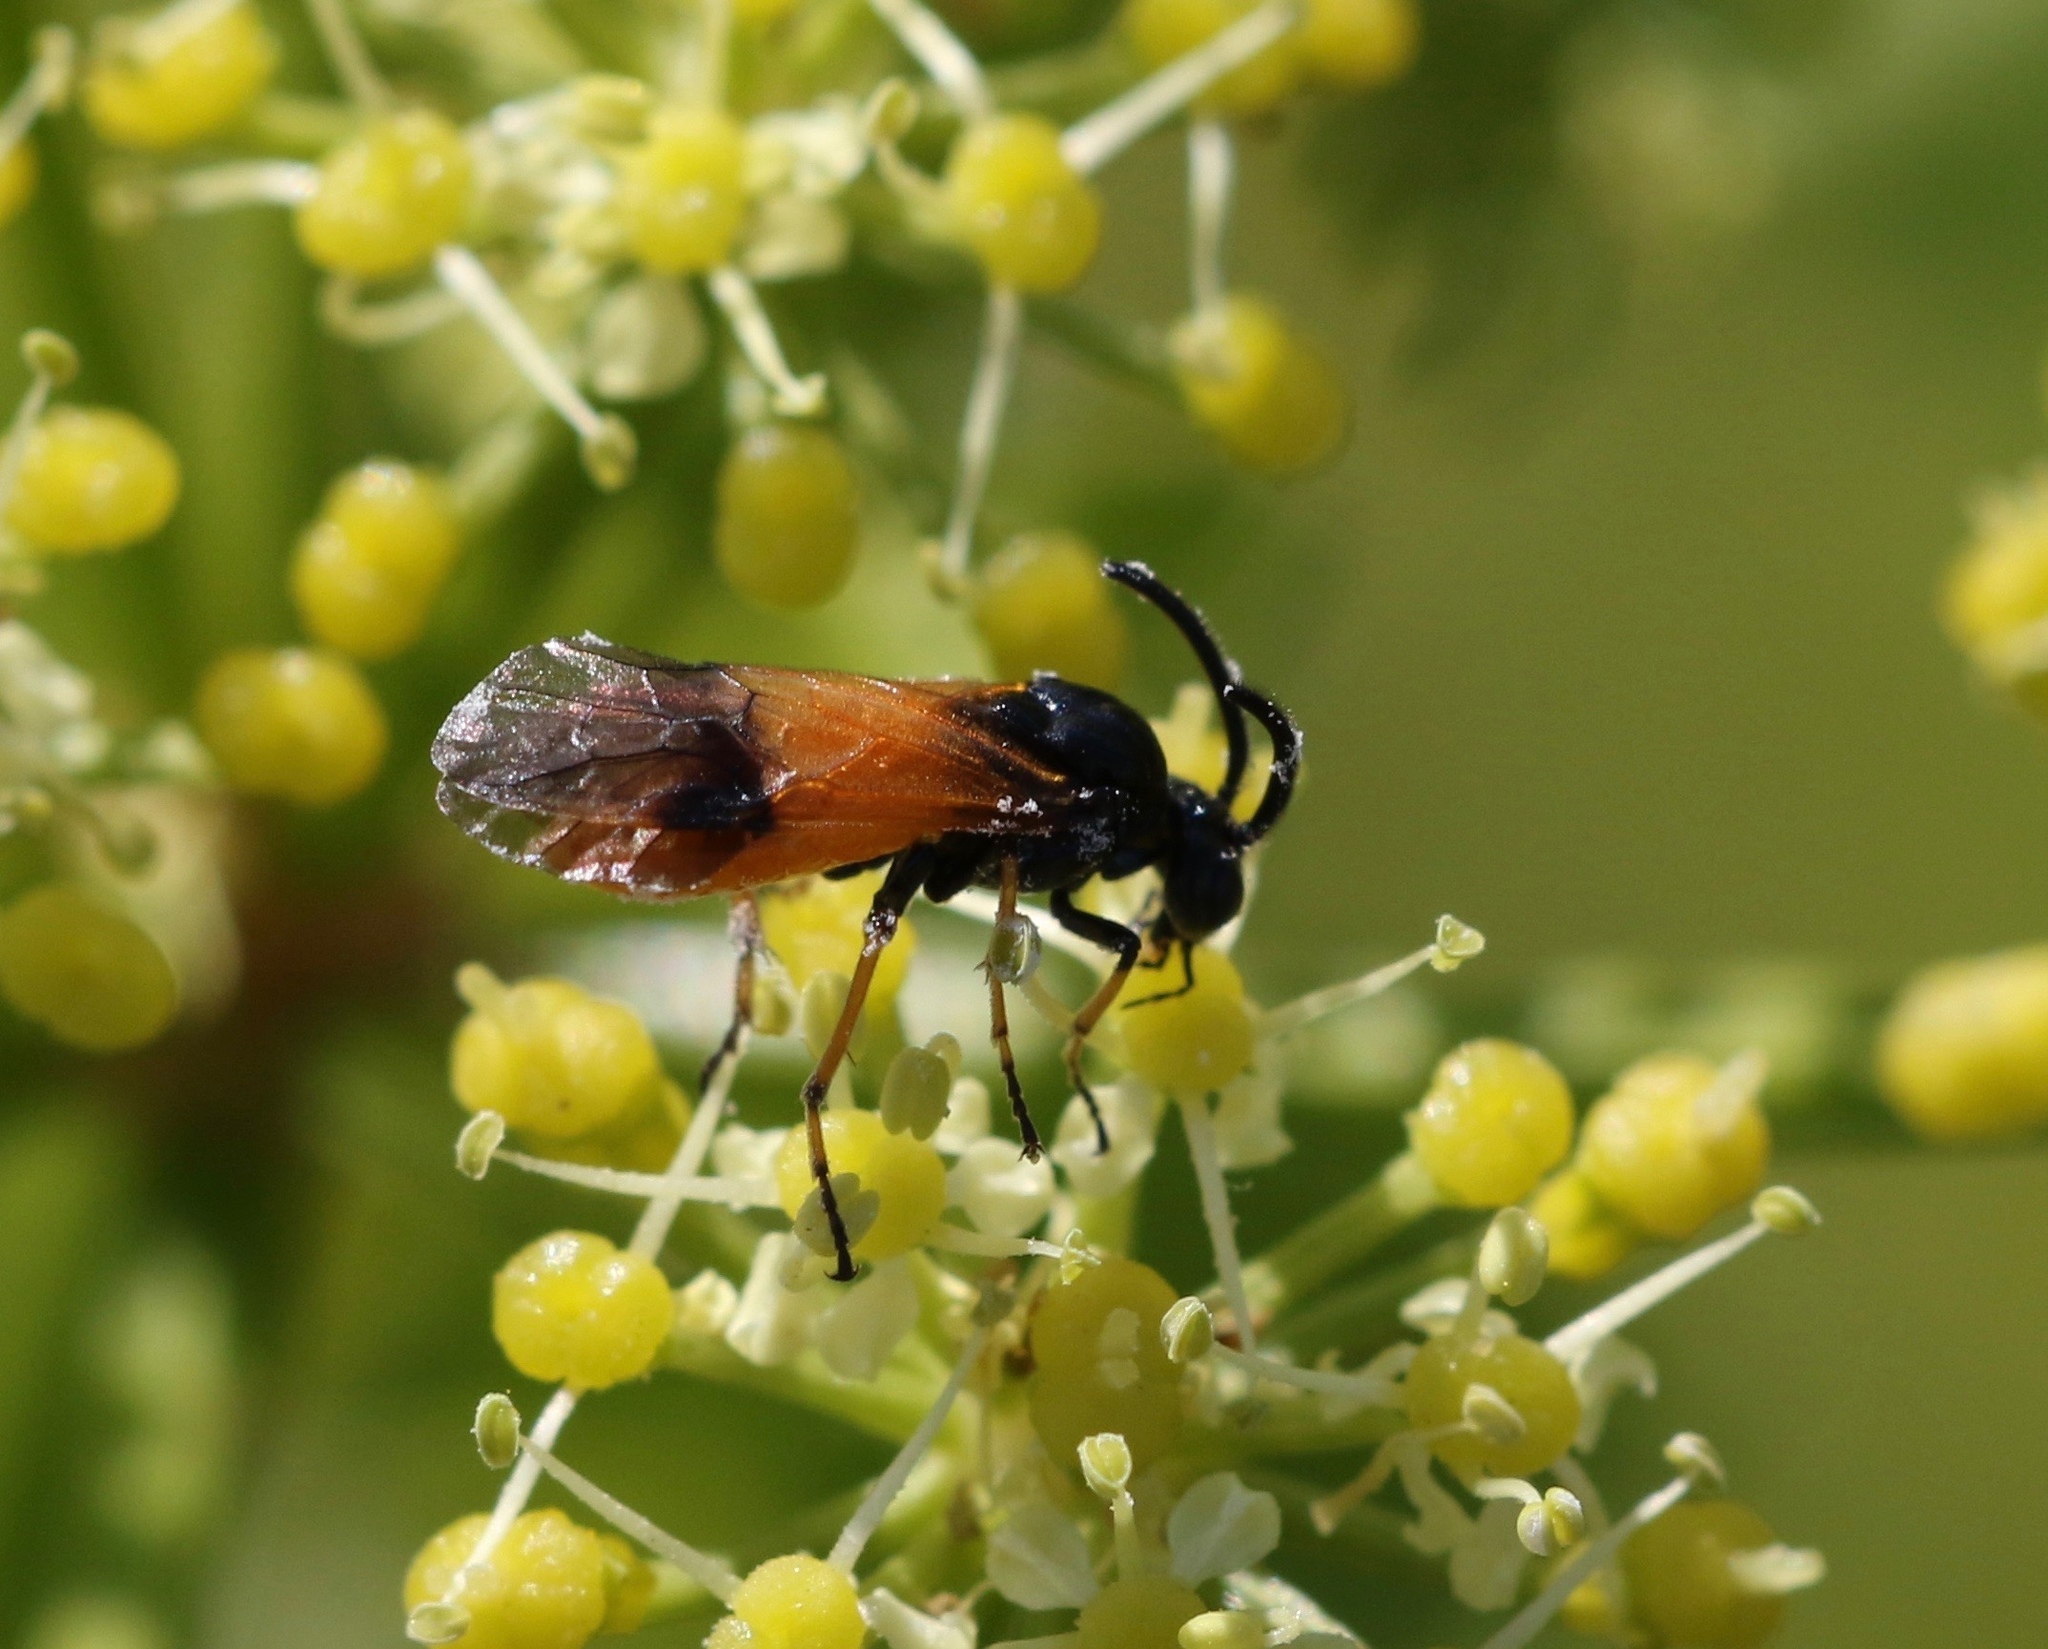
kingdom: Animalia
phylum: Arthropoda
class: Insecta
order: Hymenoptera
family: Argidae
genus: Arge
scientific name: Arge cyanocrocea
